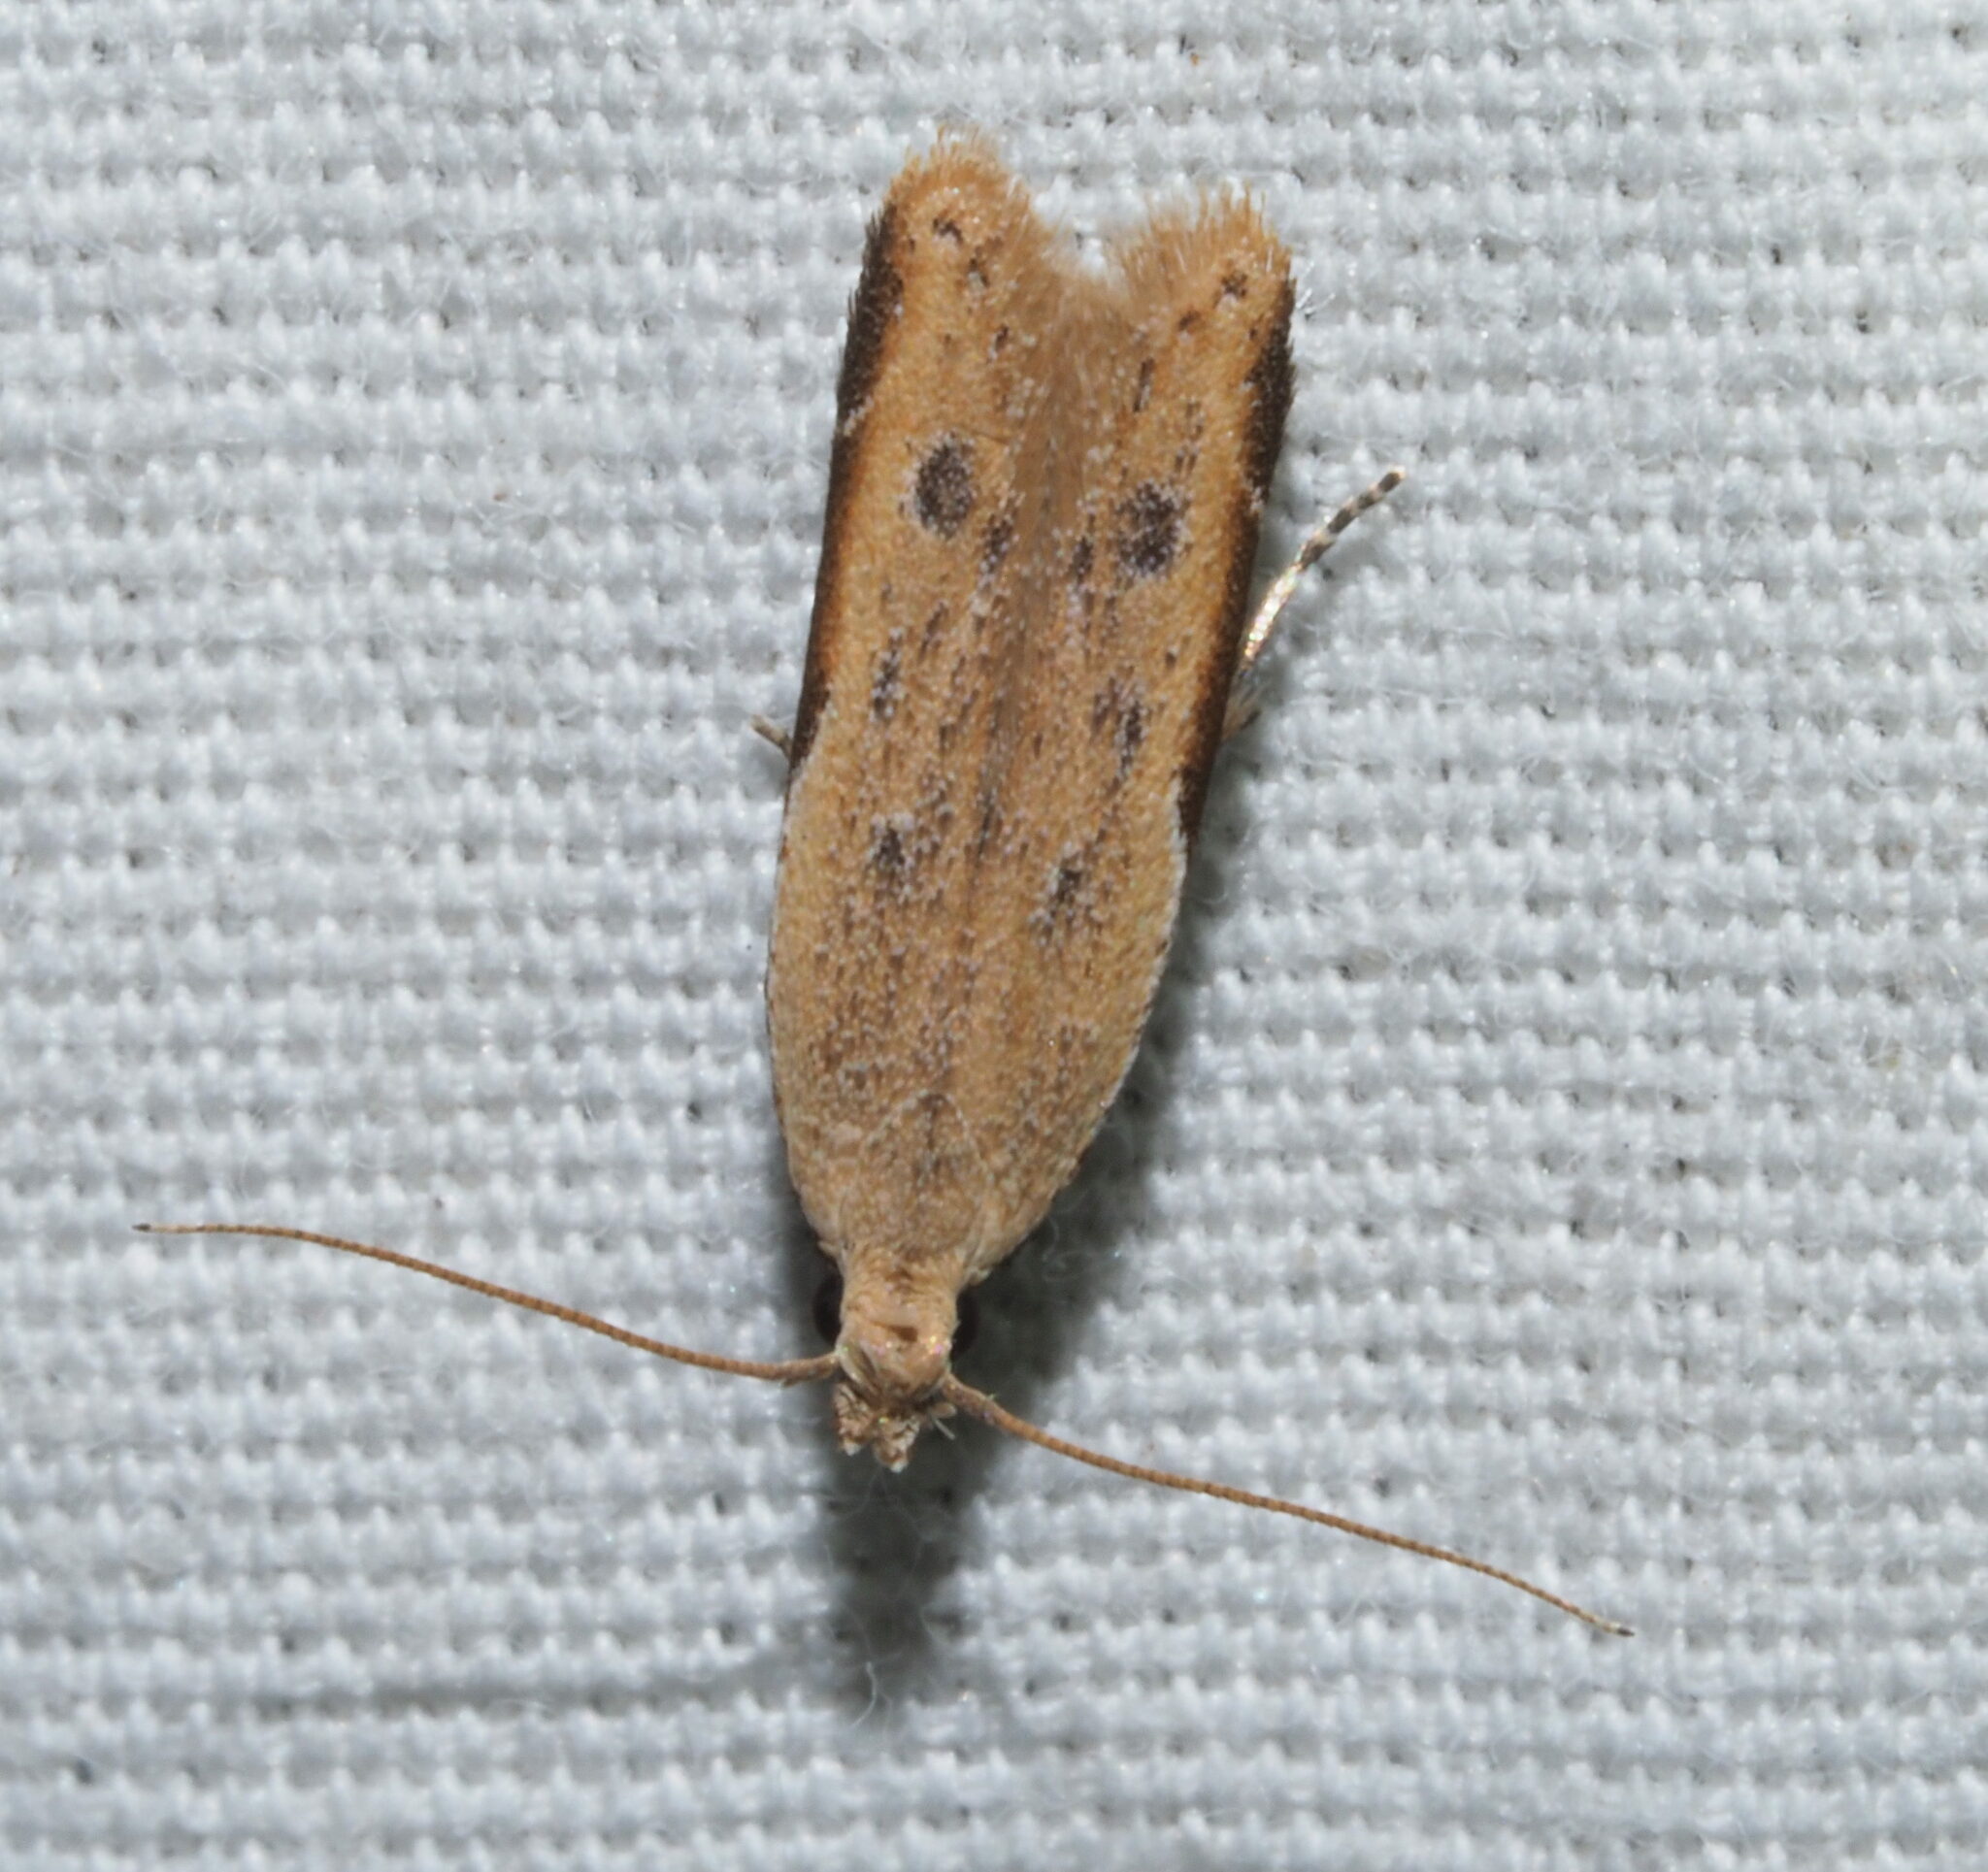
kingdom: Animalia
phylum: Arthropoda
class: Insecta
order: Lepidoptera
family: Gelechiidae
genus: Mesophleps
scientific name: Mesophleps adustipennis
